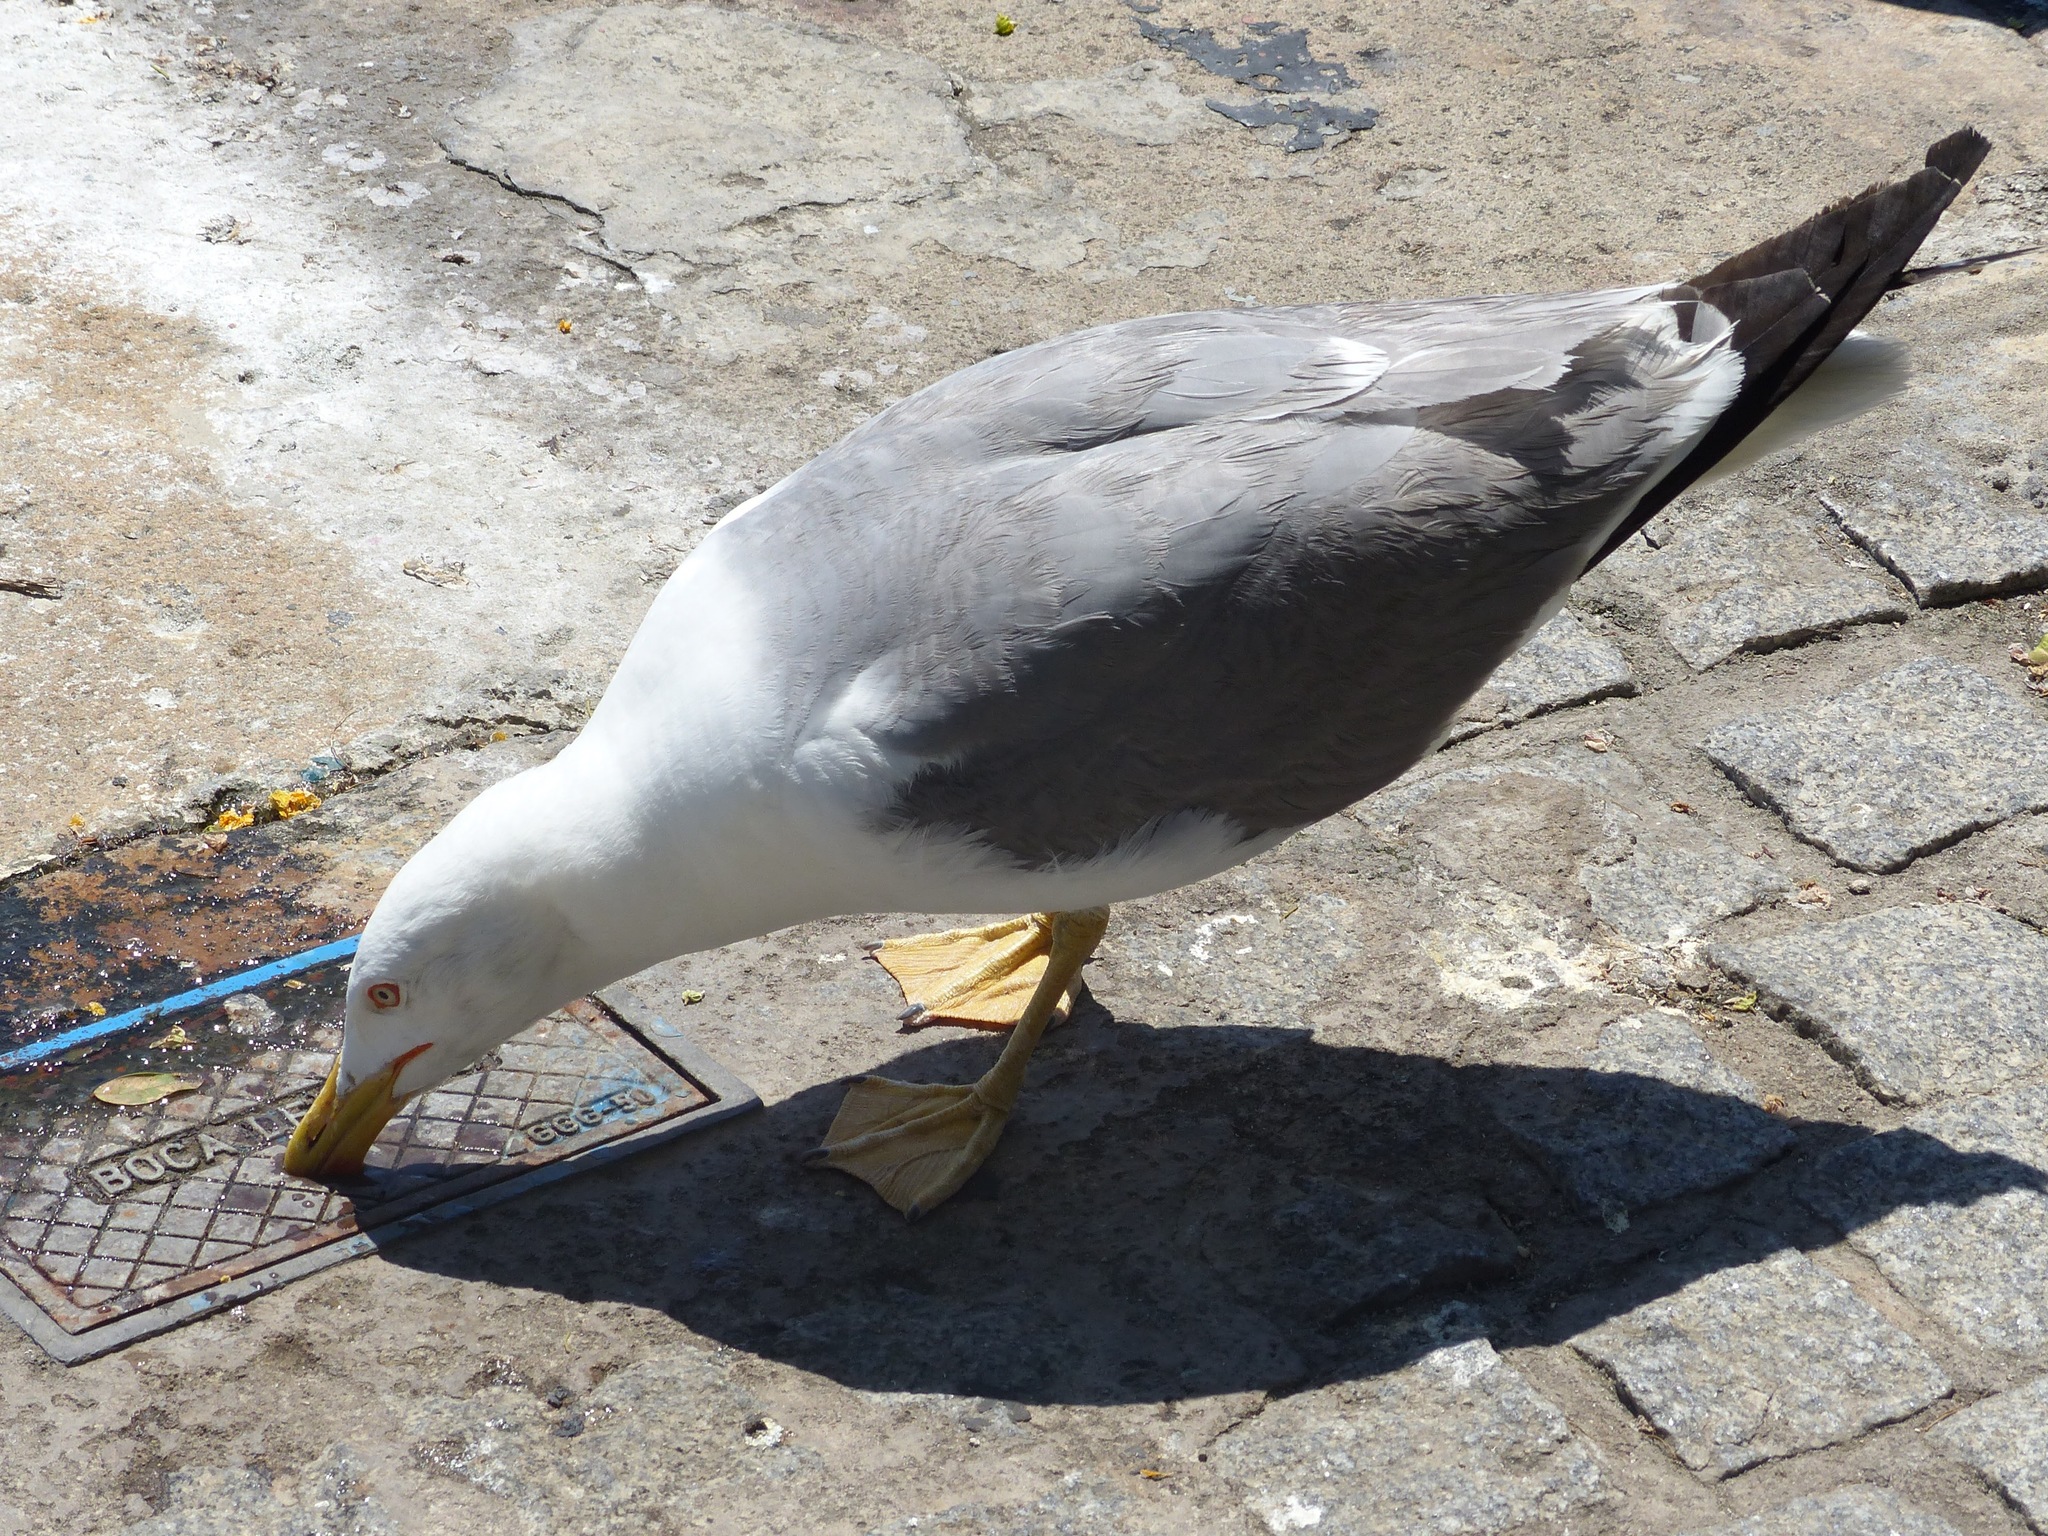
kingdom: Animalia
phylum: Chordata
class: Aves
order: Charadriiformes
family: Laridae
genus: Larus
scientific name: Larus michahellis
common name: Yellow-legged gull
